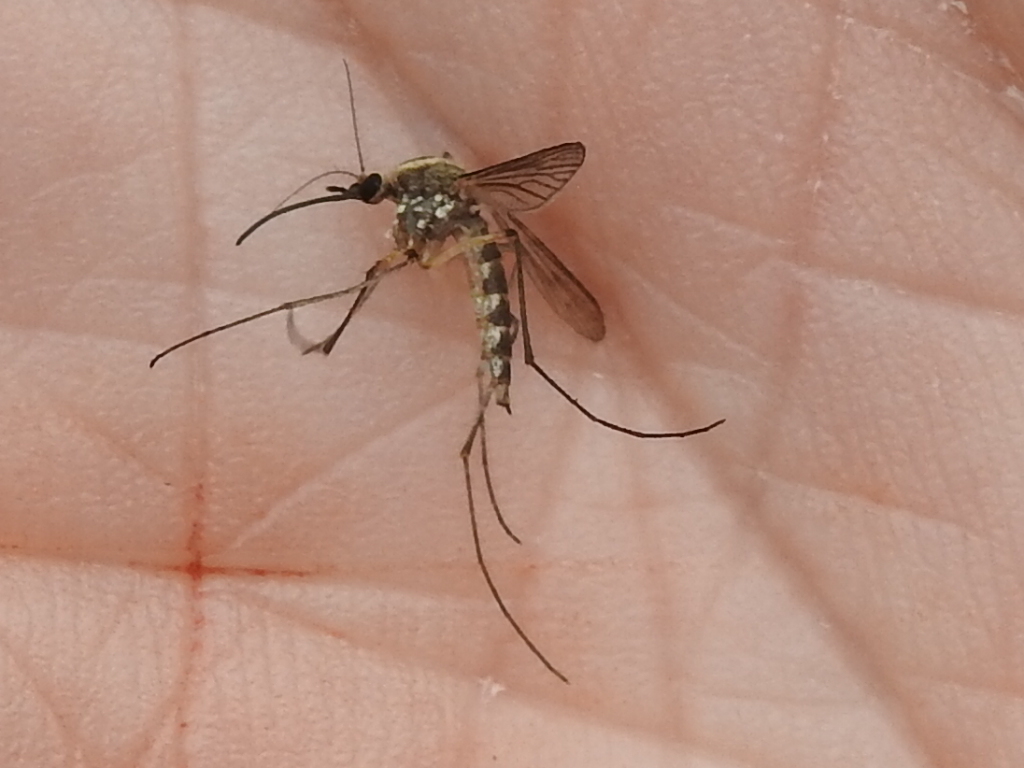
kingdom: Animalia
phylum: Arthropoda
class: Insecta
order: Diptera
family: Culicidae
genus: Aedes
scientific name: Aedes trivittatus
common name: Plains floodwater mosquito
